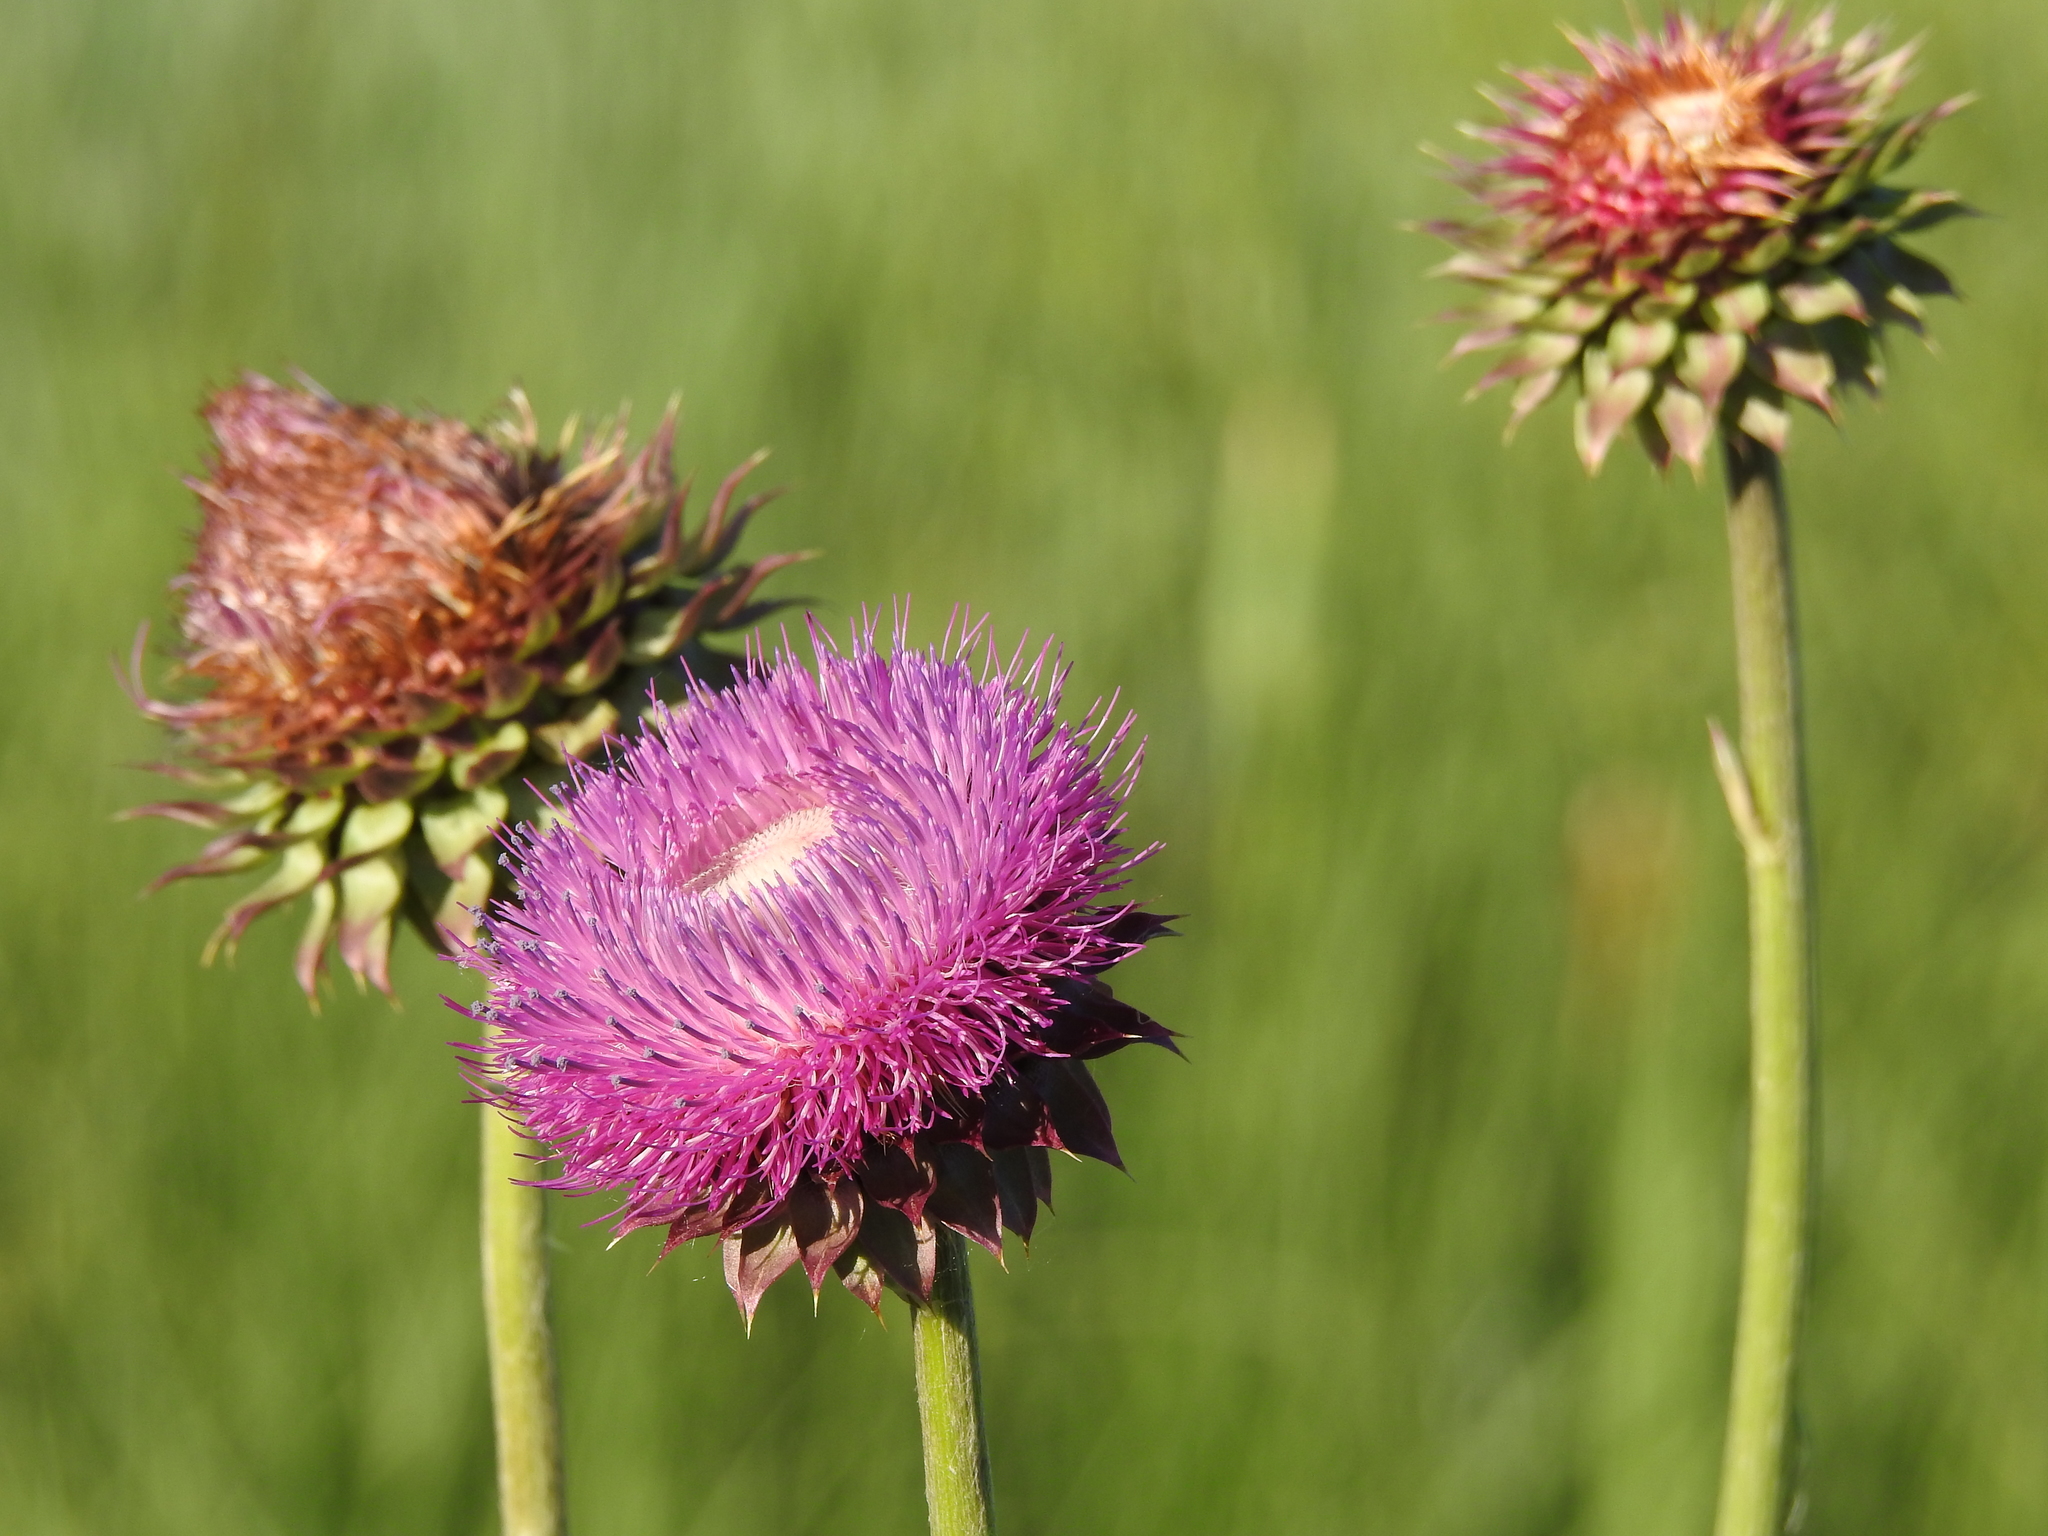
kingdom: Plantae
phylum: Tracheophyta
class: Magnoliopsida
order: Asterales
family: Asteraceae
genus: Carduus
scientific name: Carduus nutans
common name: Musk thistle
